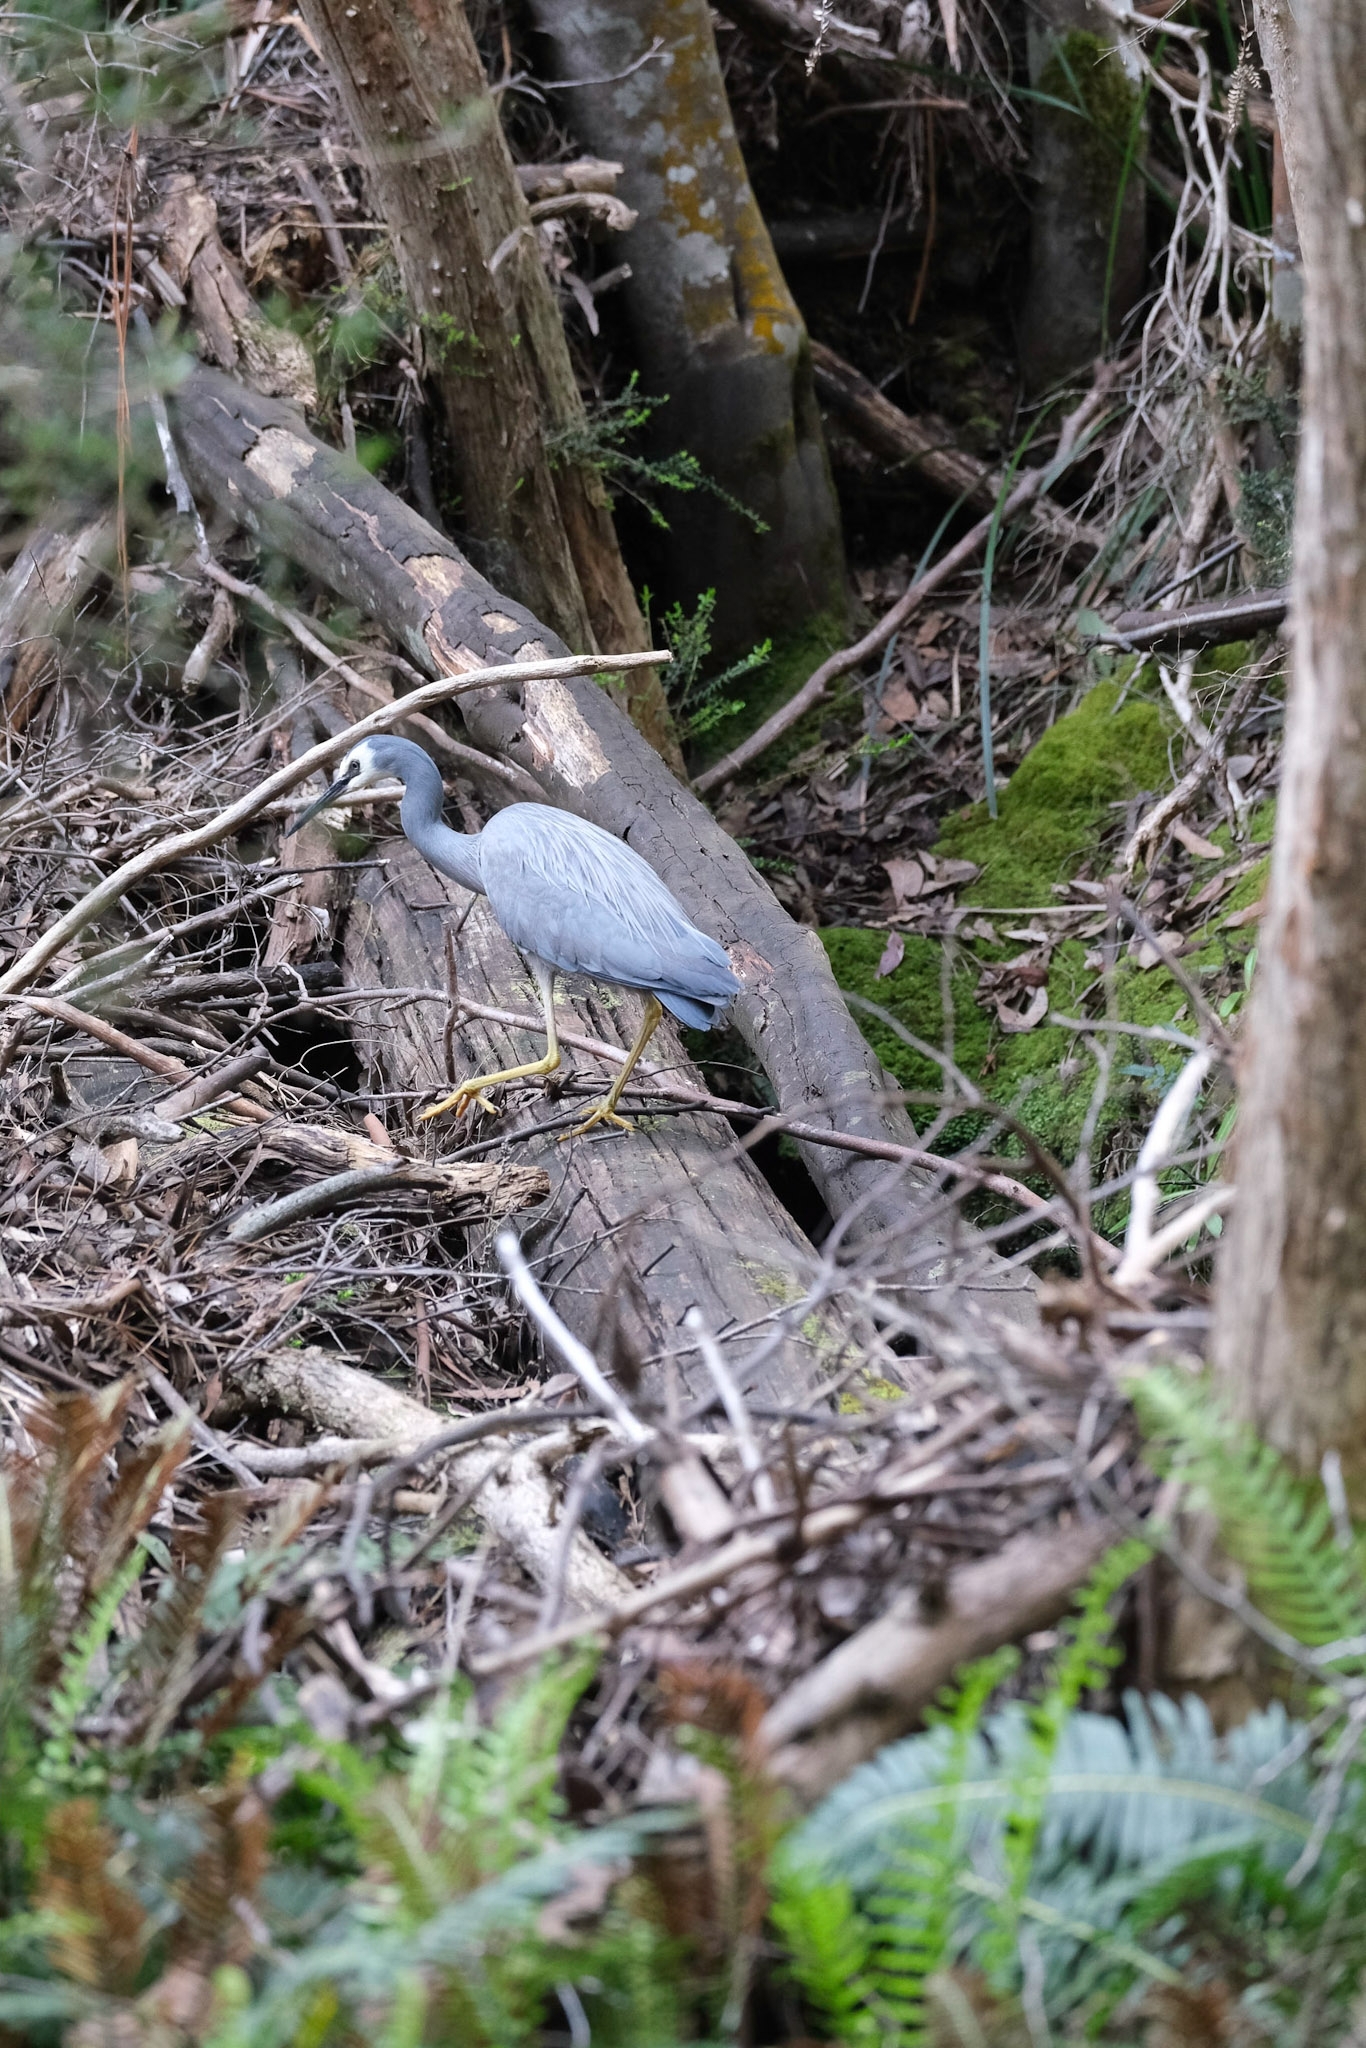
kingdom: Animalia
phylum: Chordata
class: Aves
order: Pelecaniformes
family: Ardeidae
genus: Egretta
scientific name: Egretta novaehollandiae
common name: White-faced heron
